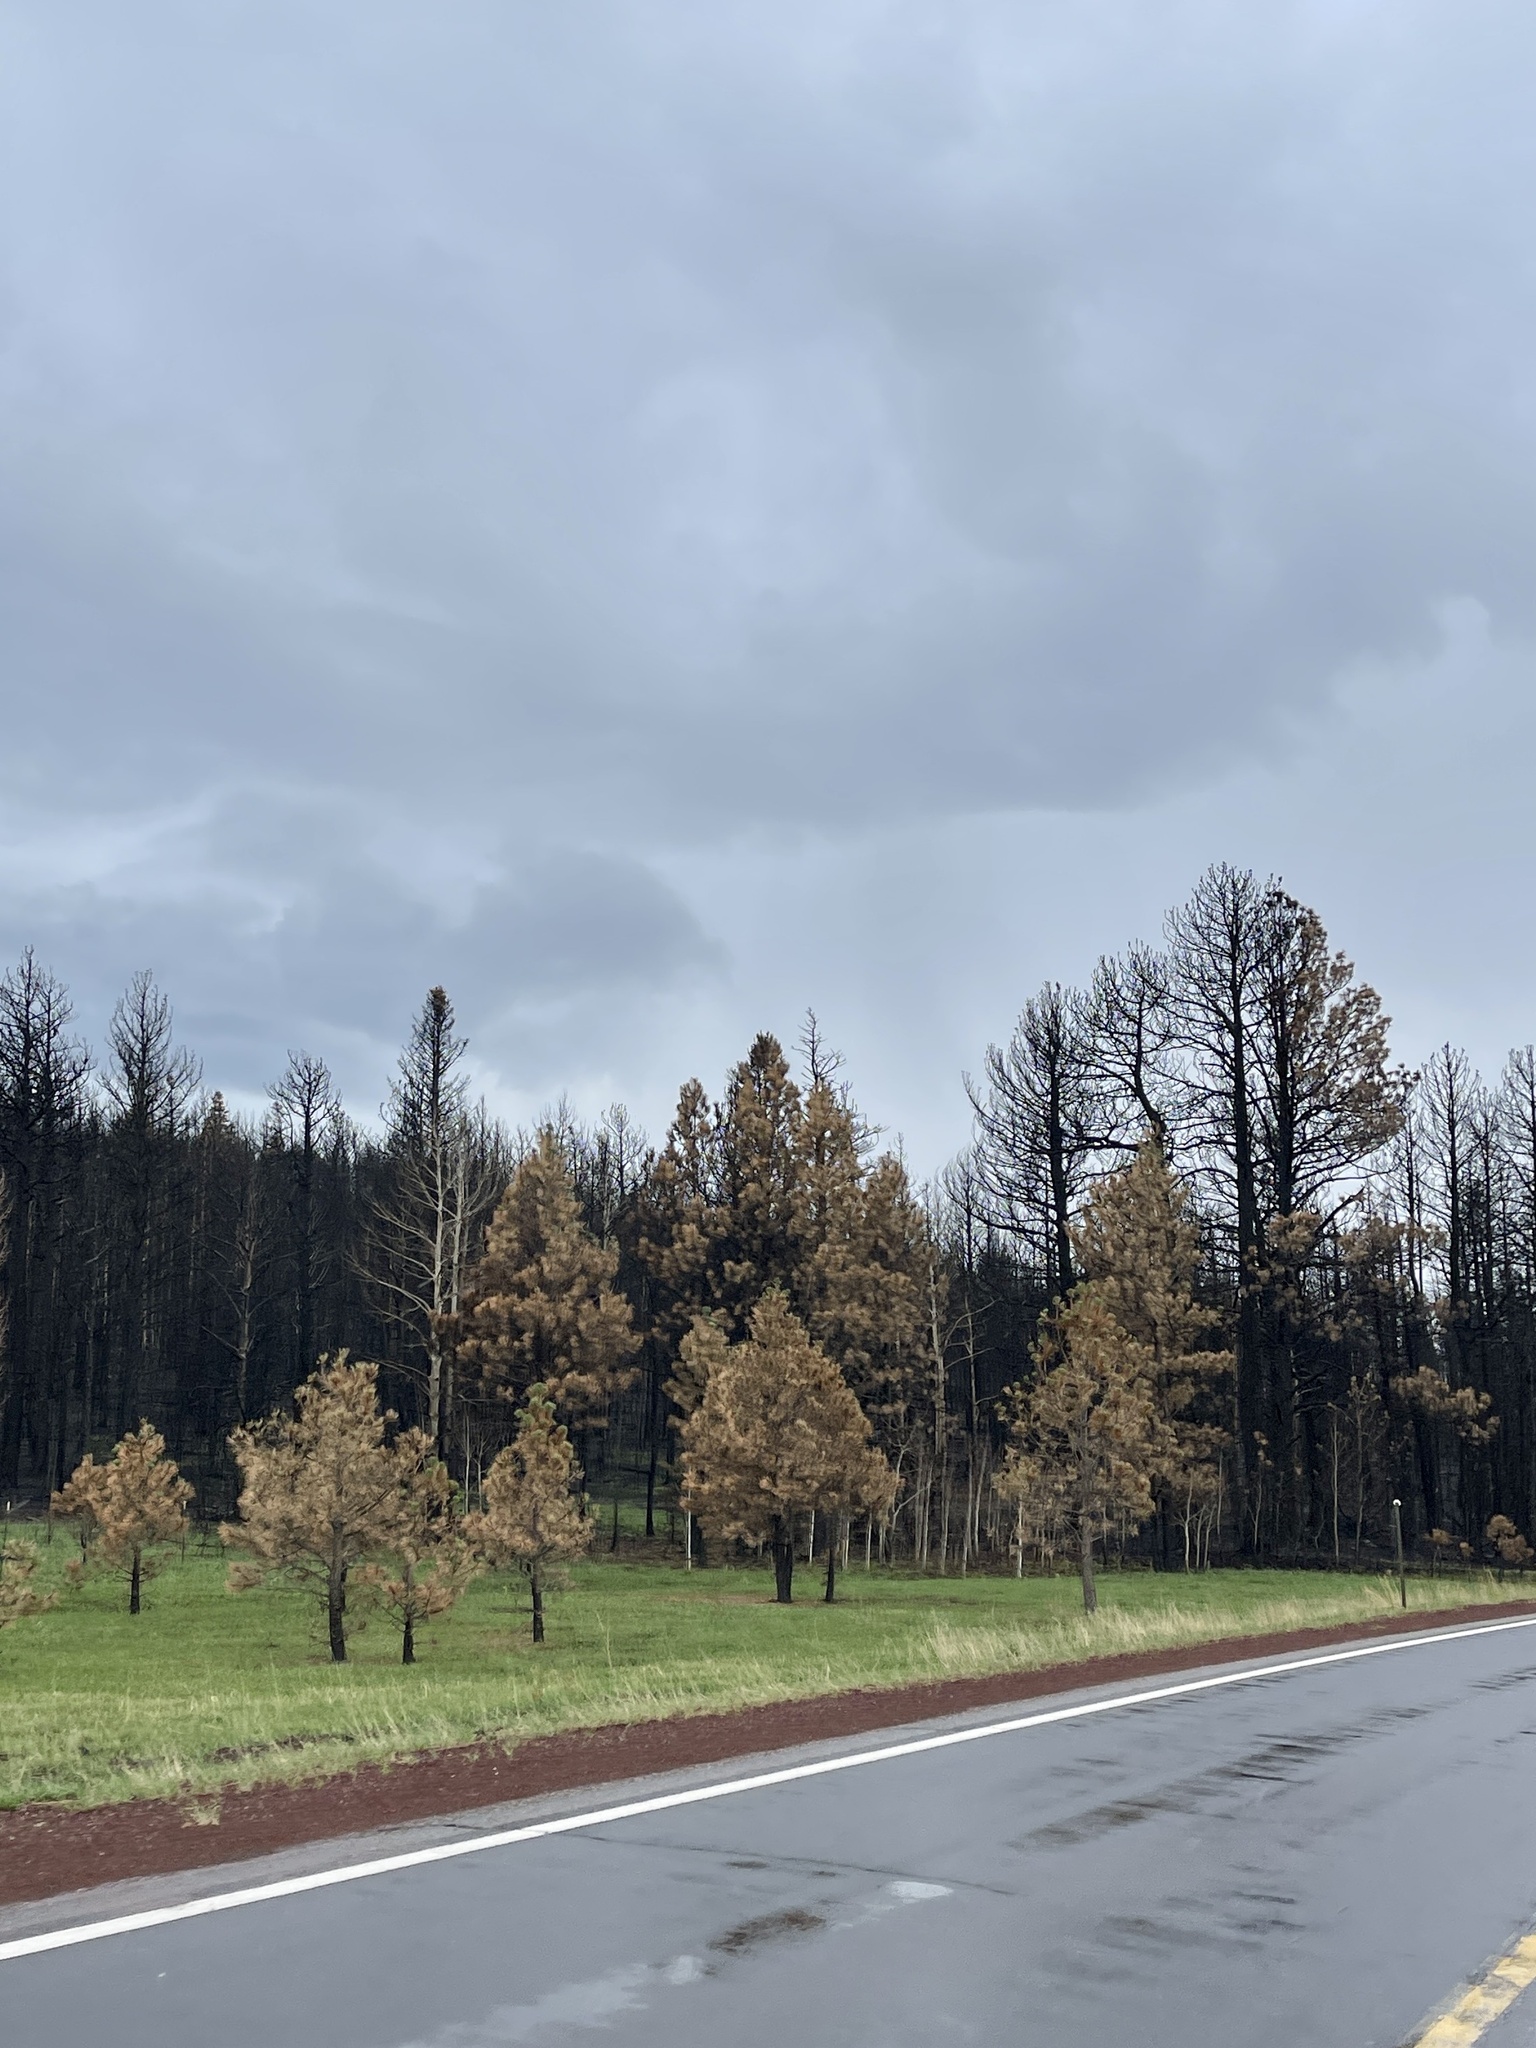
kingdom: Plantae
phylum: Tracheophyta
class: Pinopsida
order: Pinales
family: Pinaceae
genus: Pinus
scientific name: Pinus ponderosa
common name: Western yellow-pine
